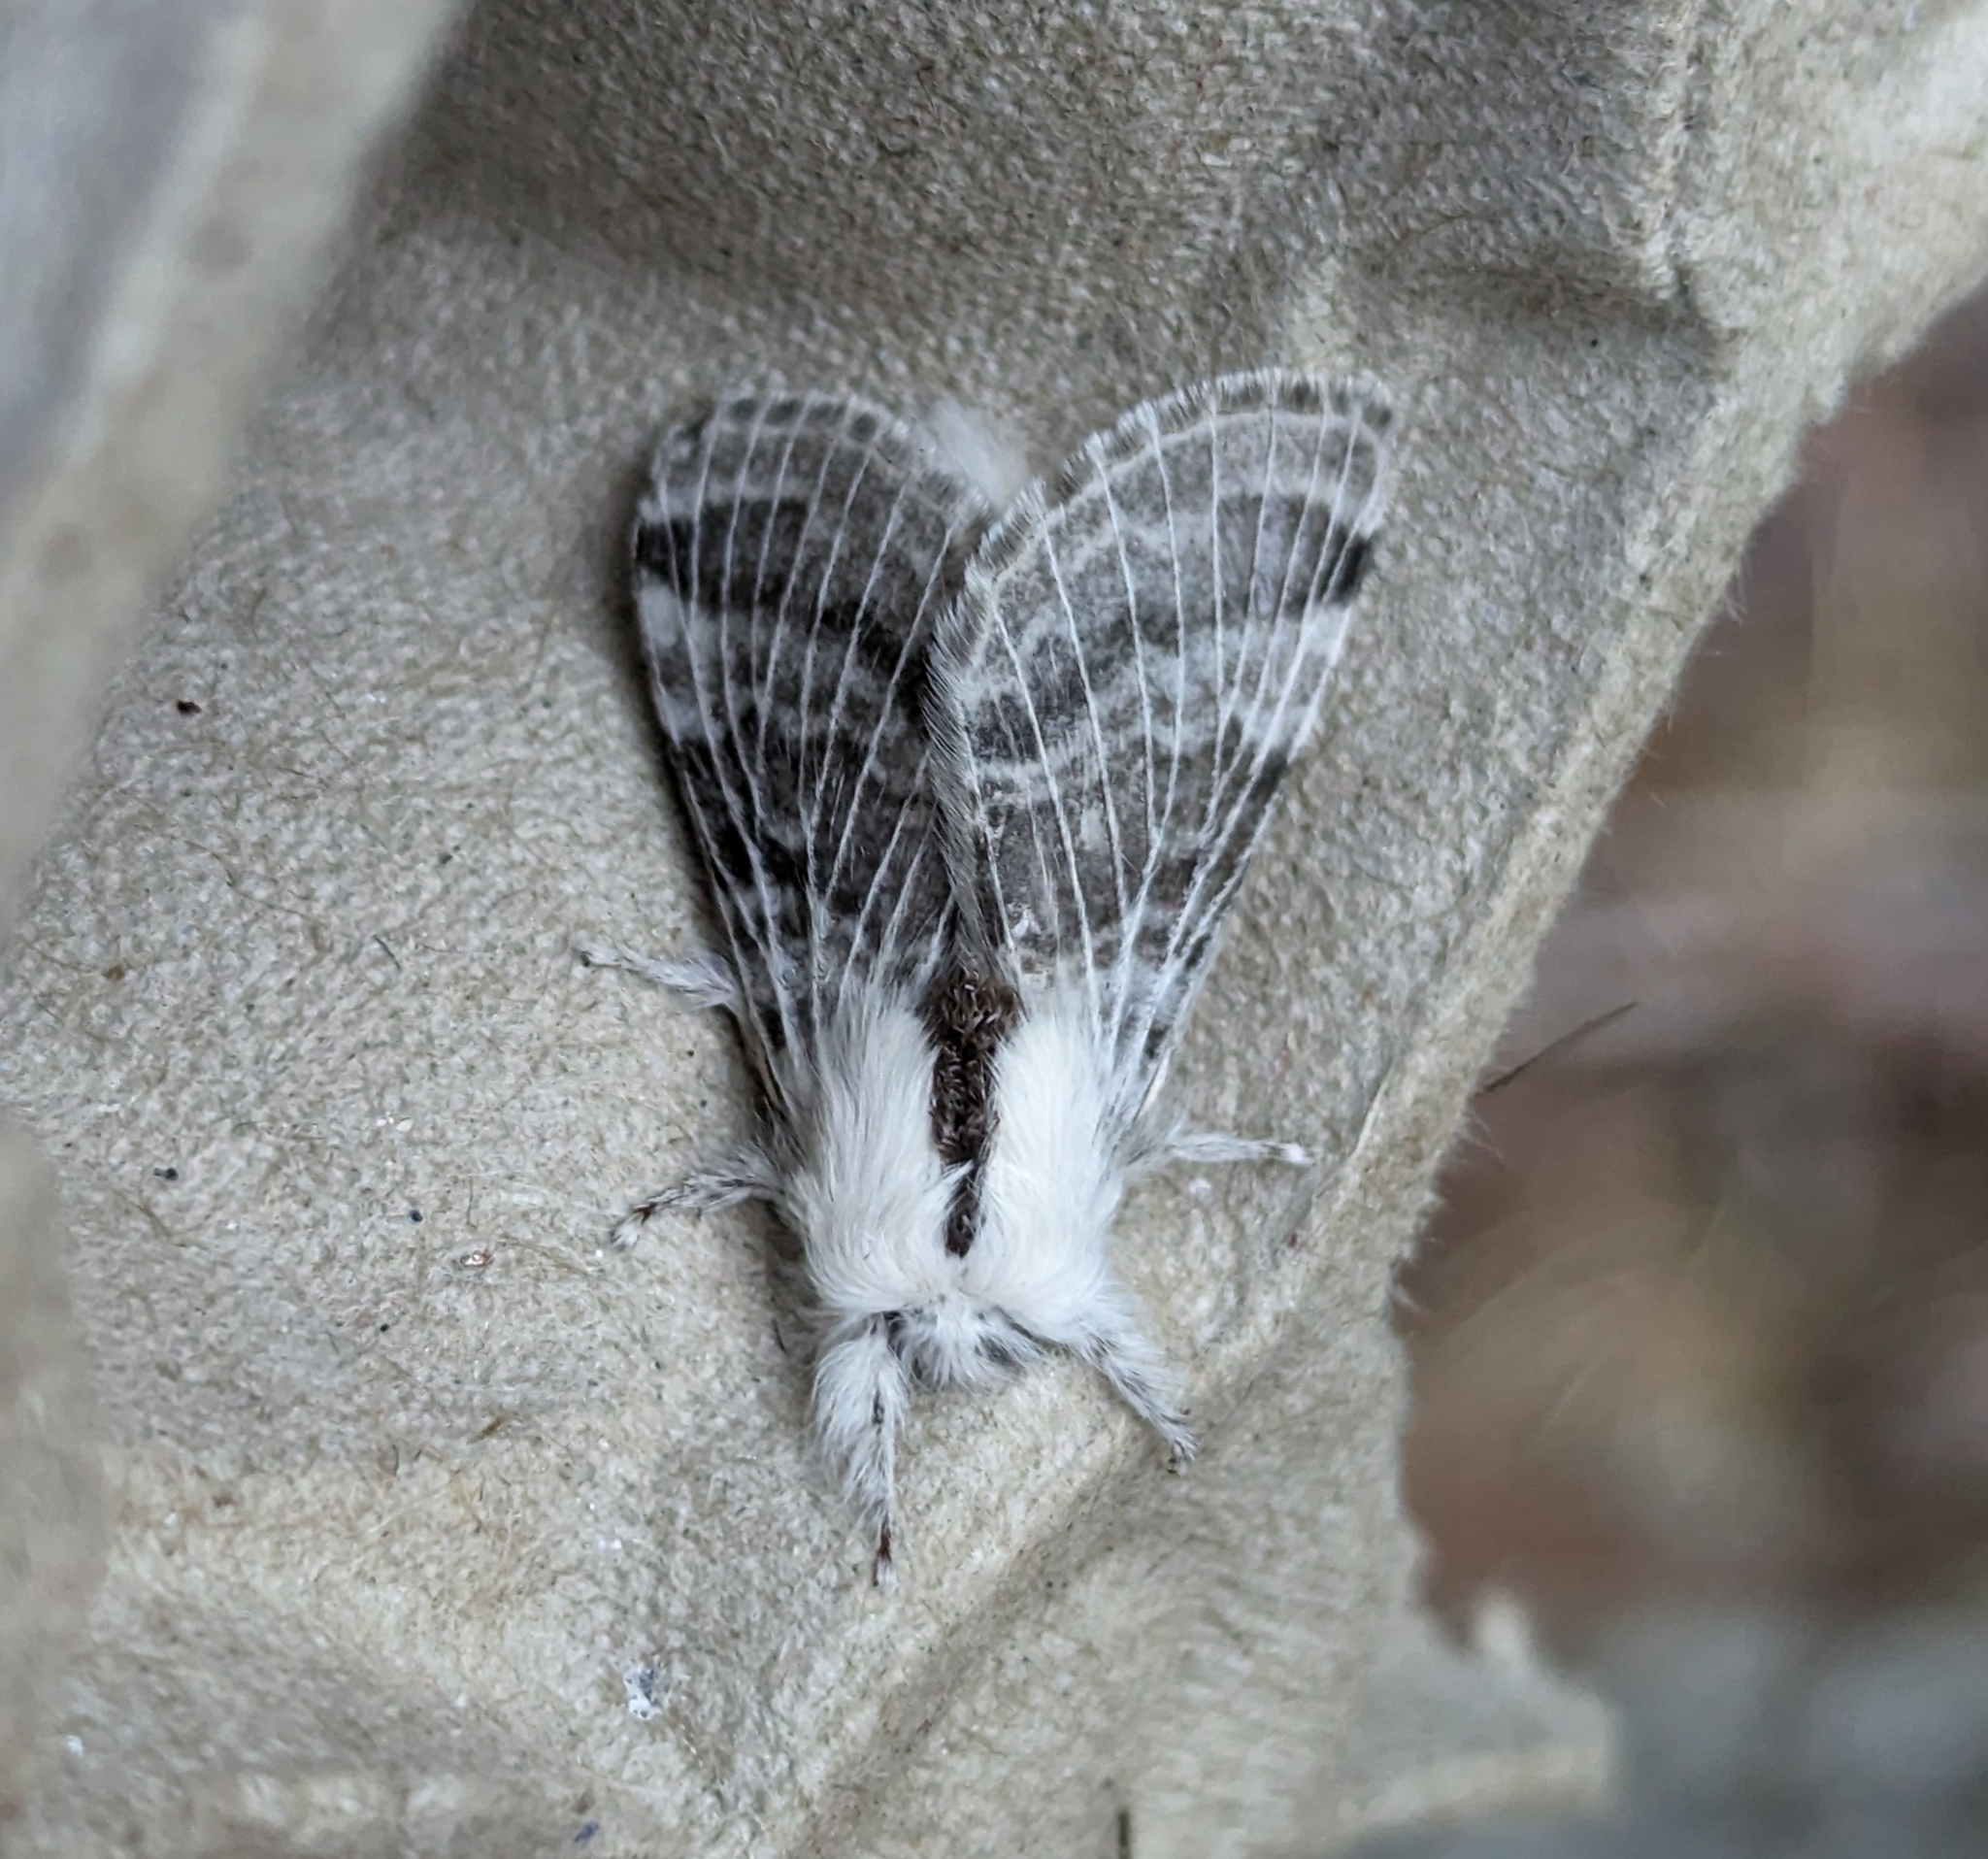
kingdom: Animalia
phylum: Arthropoda
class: Insecta
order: Lepidoptera
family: Lasiocampidae
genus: Tolype
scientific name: Tolype dayi
